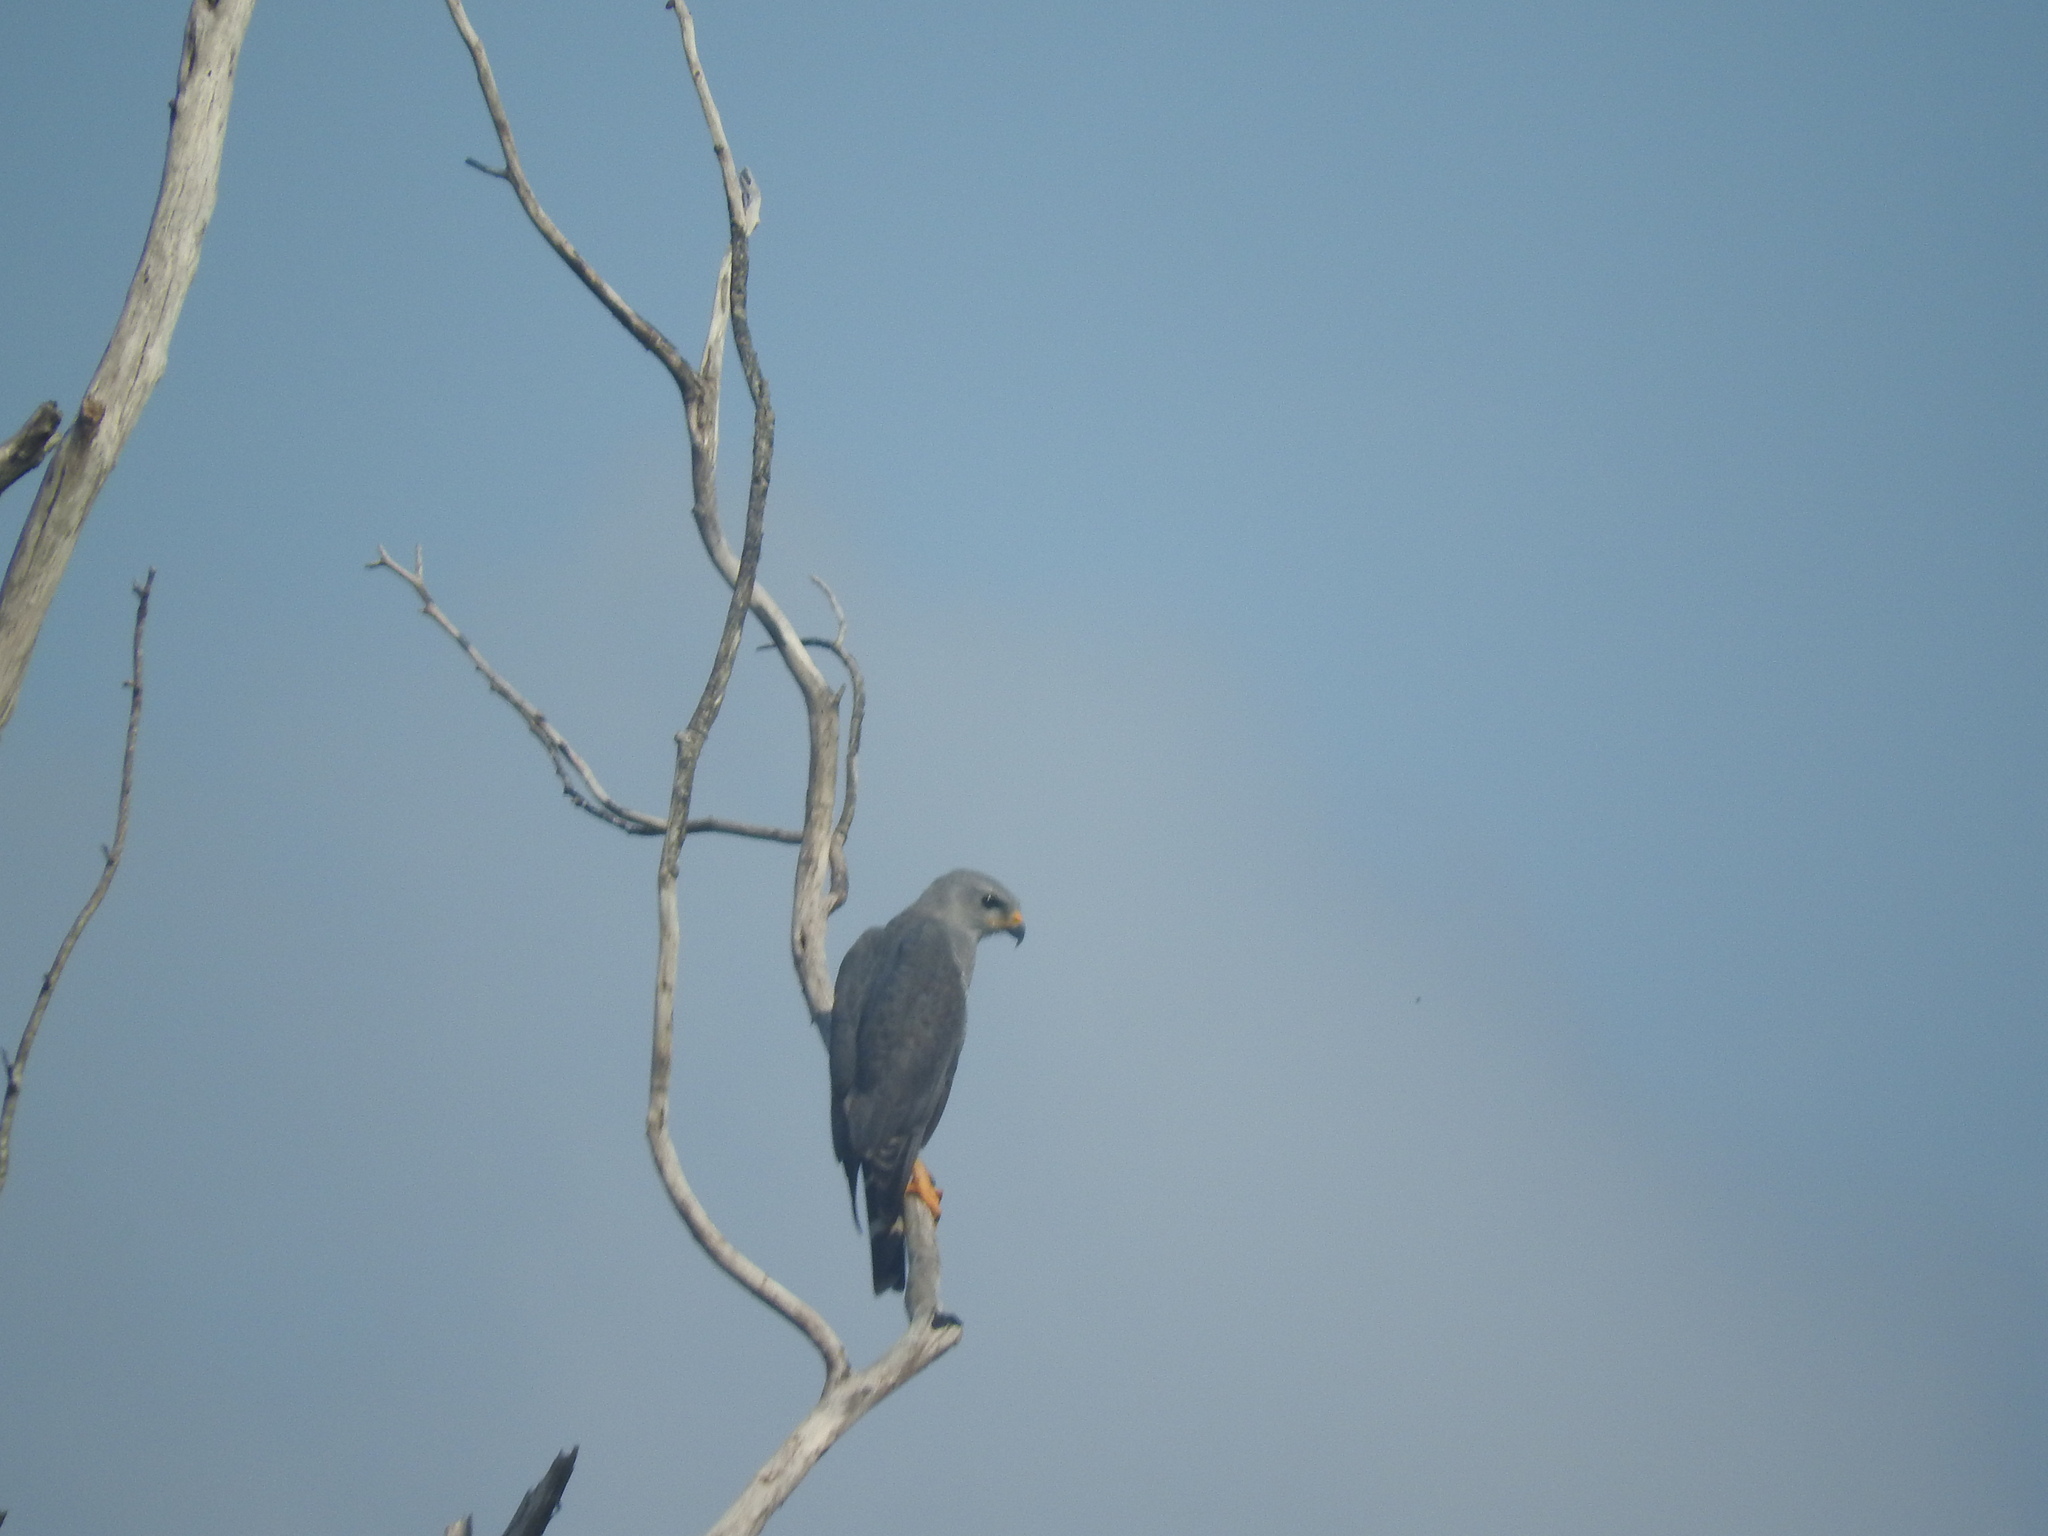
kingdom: Animalia
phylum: Chordata
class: Aves
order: Accipitriformes
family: Accipitridae
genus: Buteo
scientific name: Buteo nitidus
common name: Grey-lined hawk
